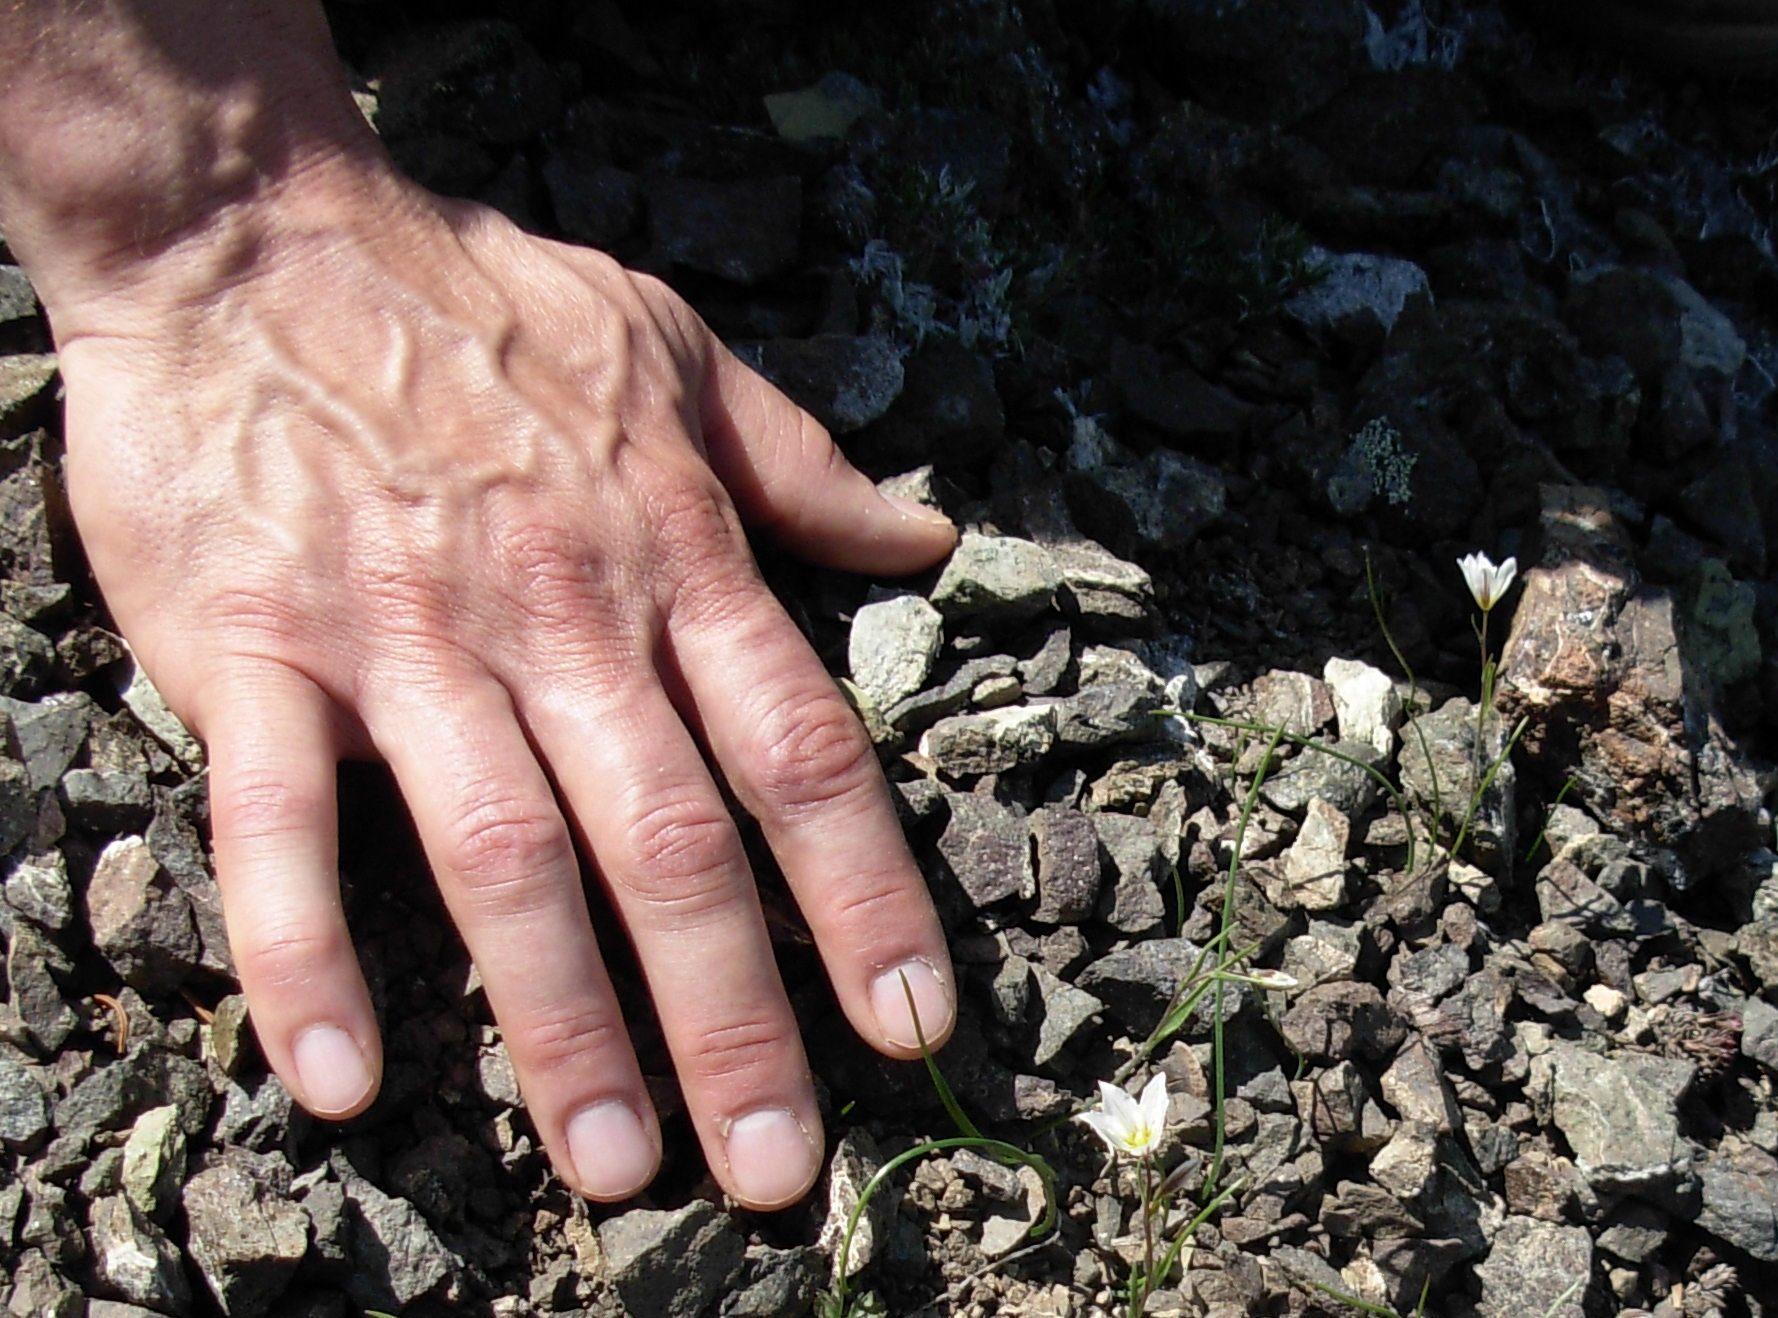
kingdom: Plantae
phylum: Tracheophyta
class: Liliopsida
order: Liliales
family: Liliaceae
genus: Gagea
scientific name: Gagea serotina
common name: Snowdon lily
